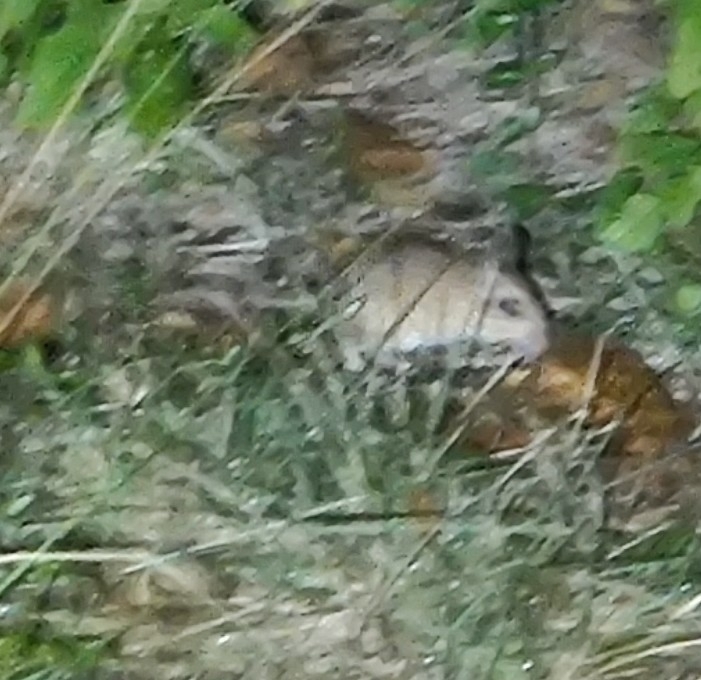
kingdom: Animalia
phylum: Chordata
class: Mammalia
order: Rodentia
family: Muridae
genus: Tatera
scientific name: Tatera indica
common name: Indian gerbil
